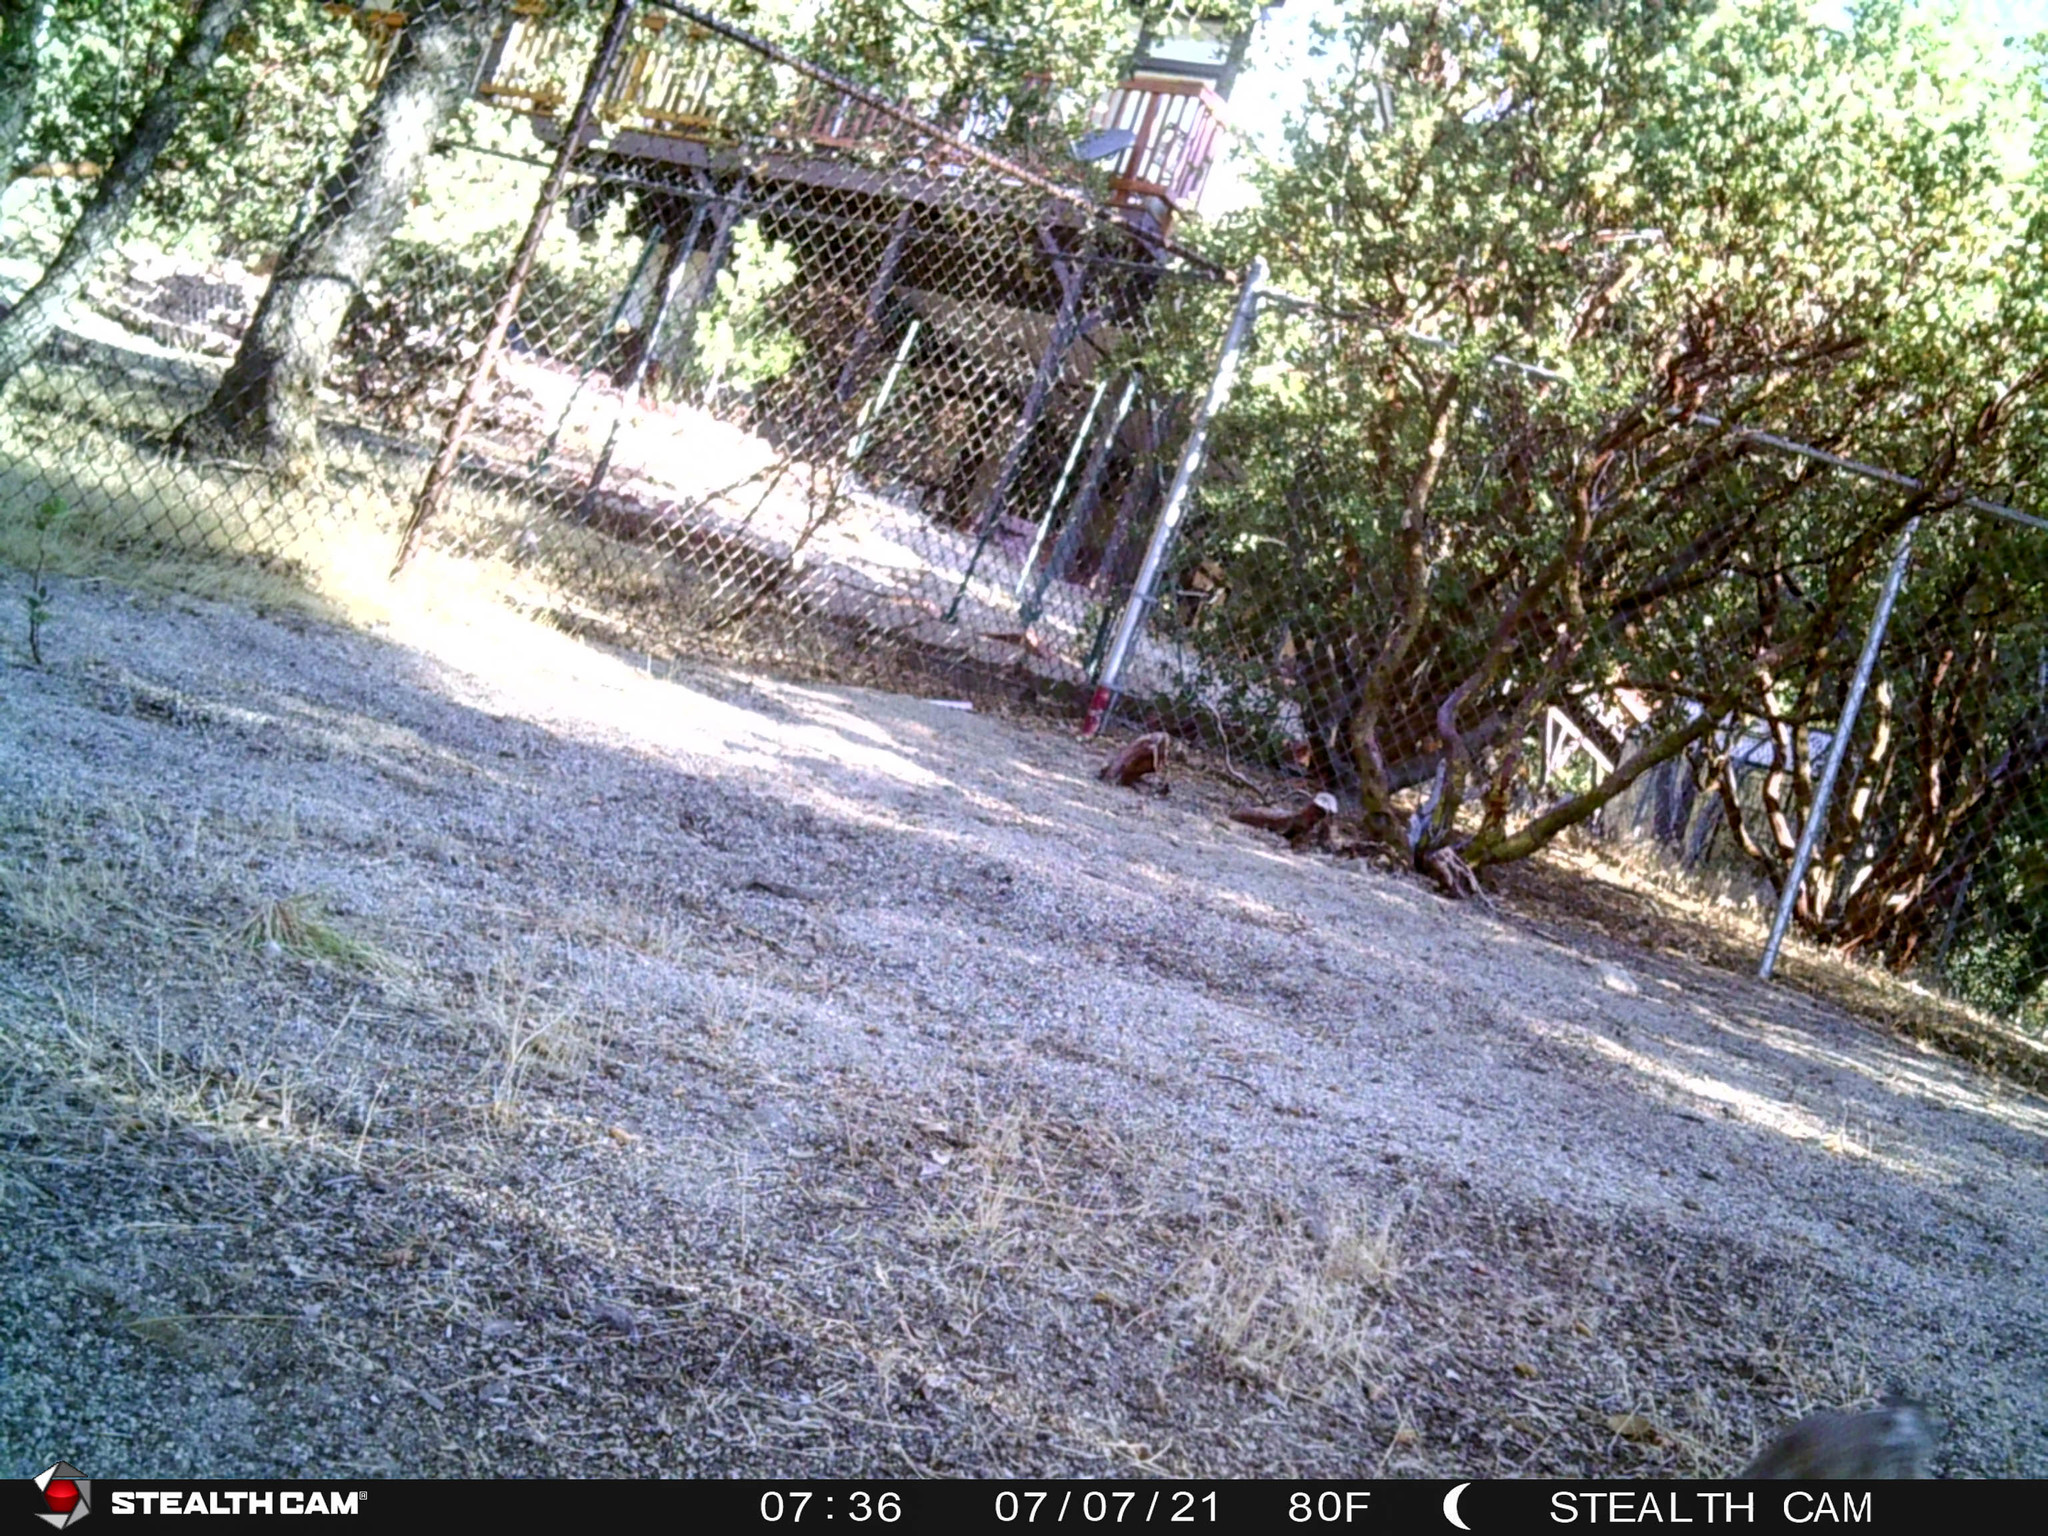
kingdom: Animalia
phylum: Chordata
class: Mammalia
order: Rodentia
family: Sciuridae
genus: Otospermophilus
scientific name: Otospermophilus beecheyi
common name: California ground squirrel
